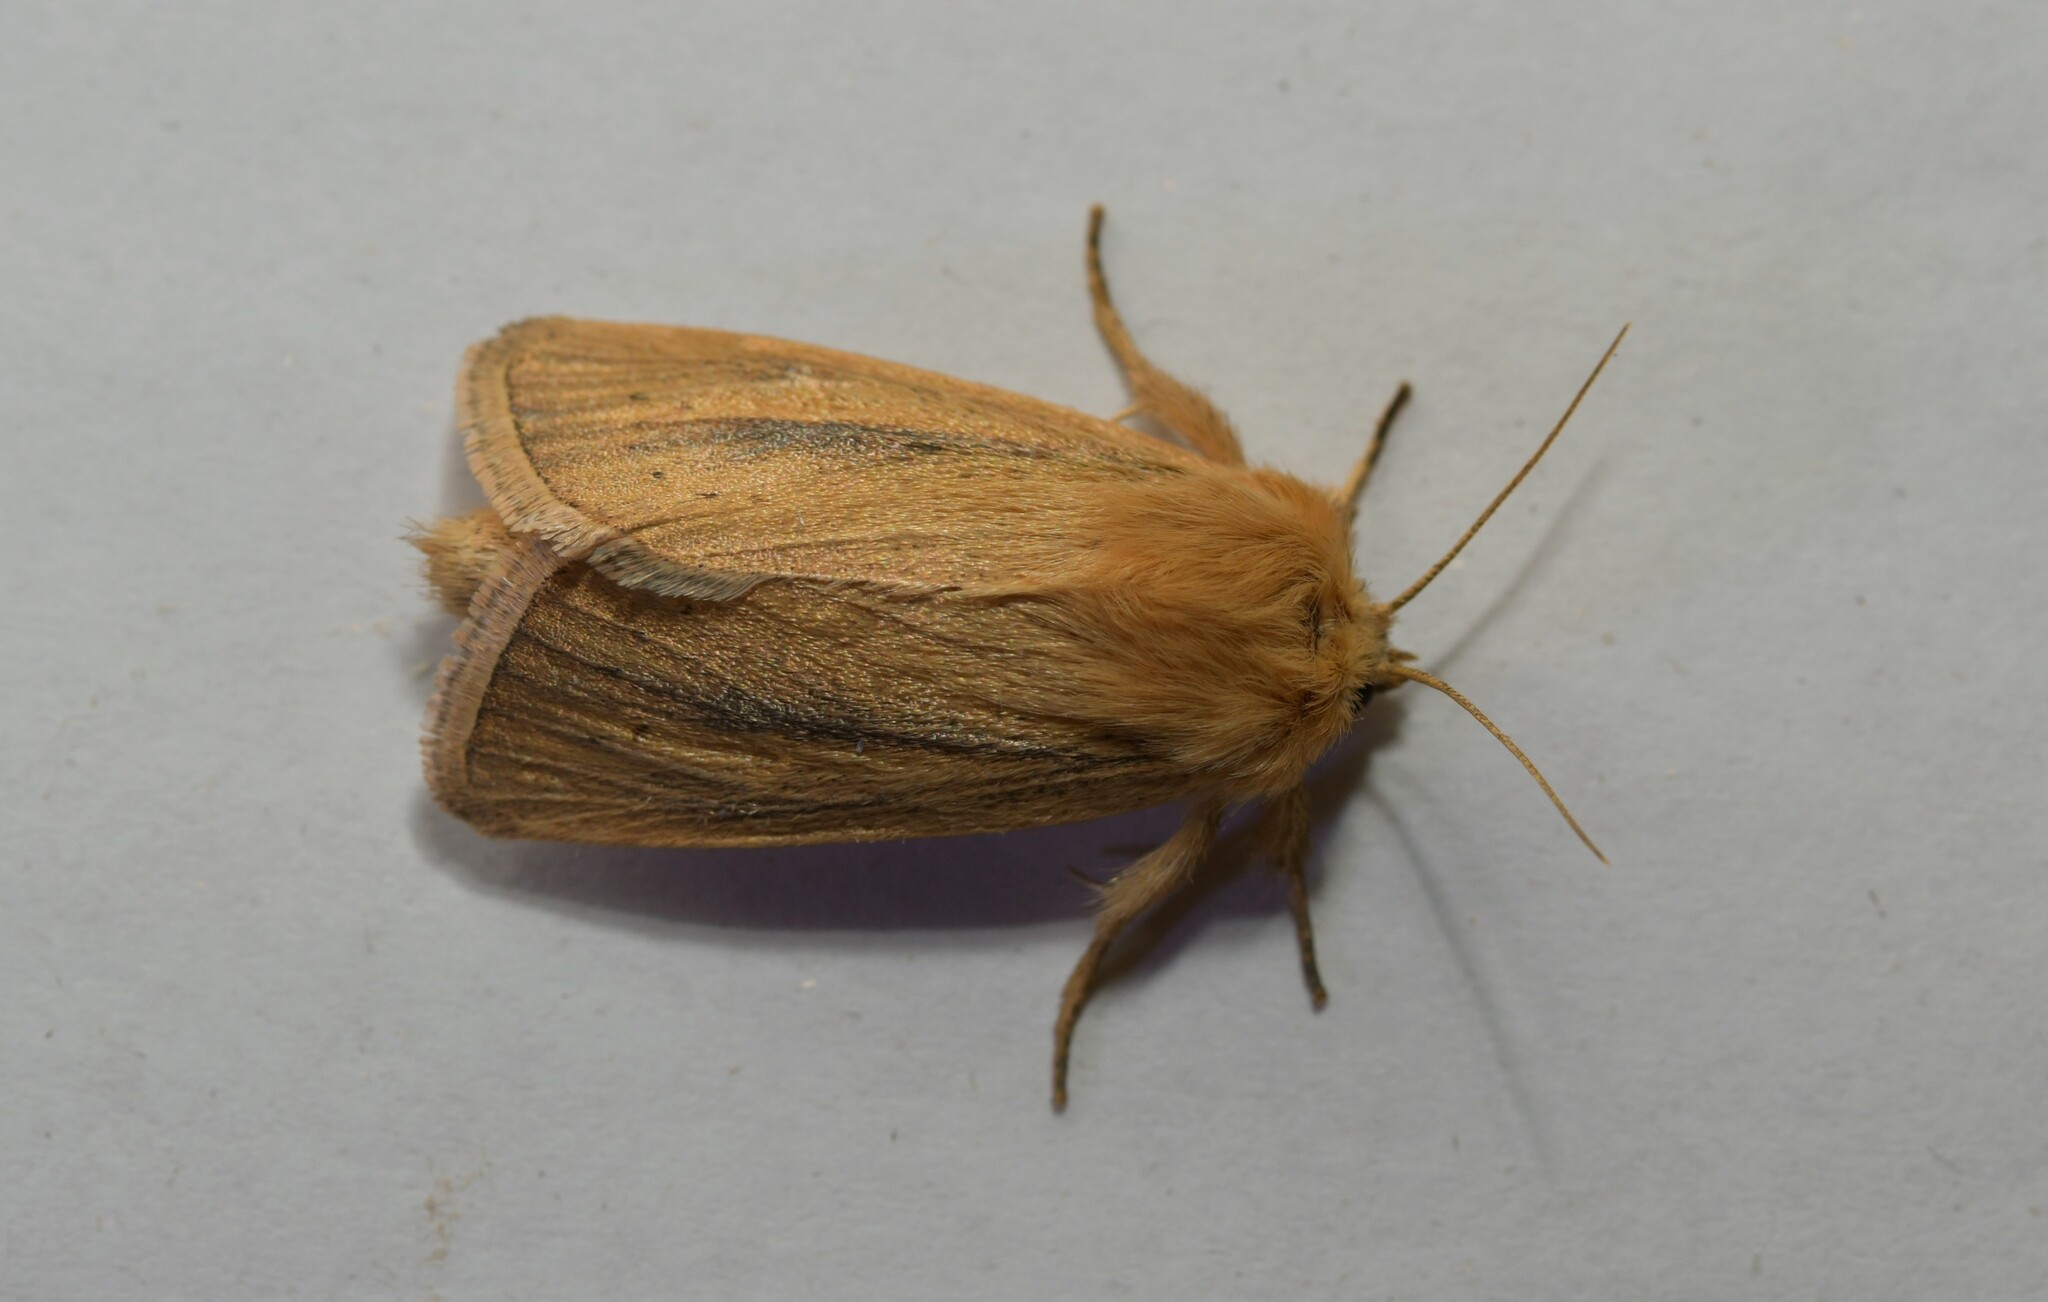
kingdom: Animalia
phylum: Arthropoda
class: Insecta
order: Lepidoptera
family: Noctuidae
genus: Sesamia
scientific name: Sesamia nonagrioides
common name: Pink stem borer
